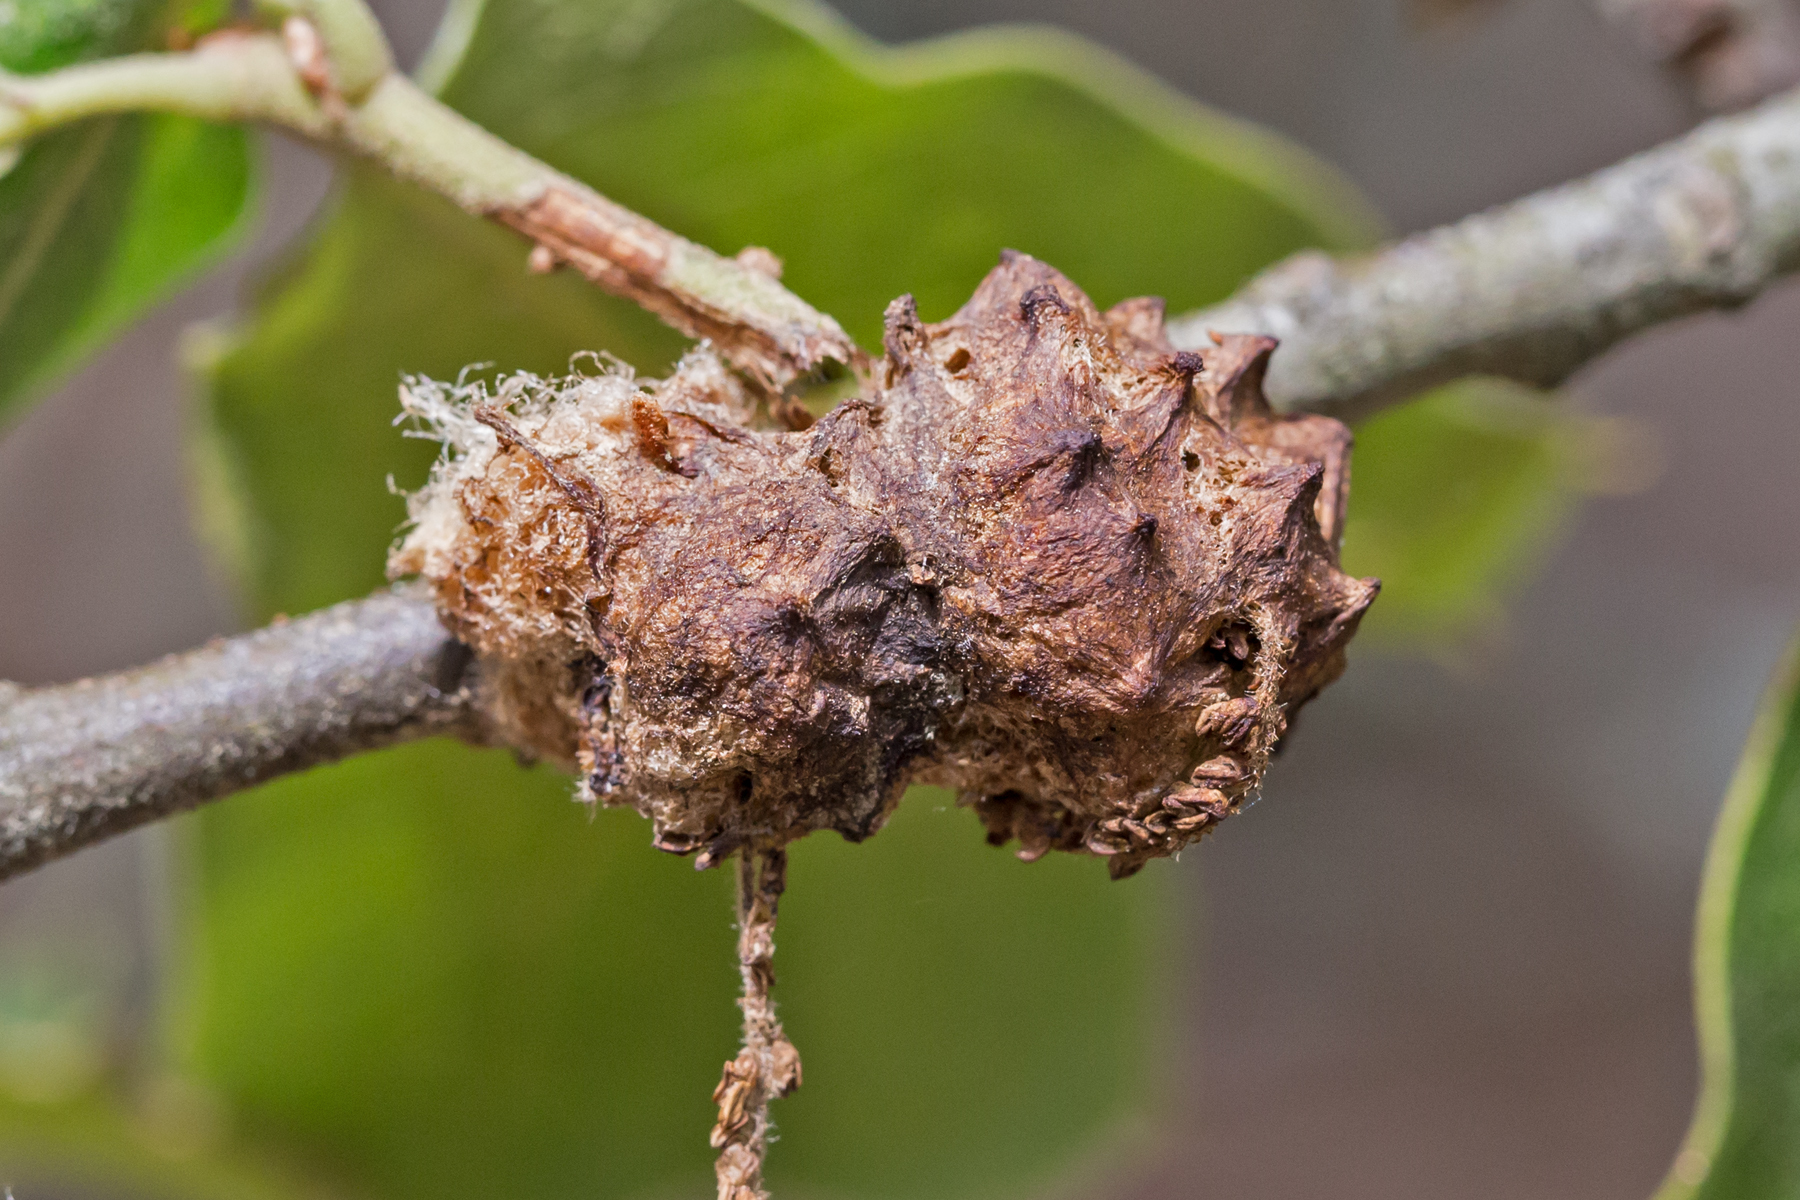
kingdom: Animalia
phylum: Arthropoda
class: Insecta
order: Hymenoptera
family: Cynipidae
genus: Callirhytis
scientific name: Callirhytis
